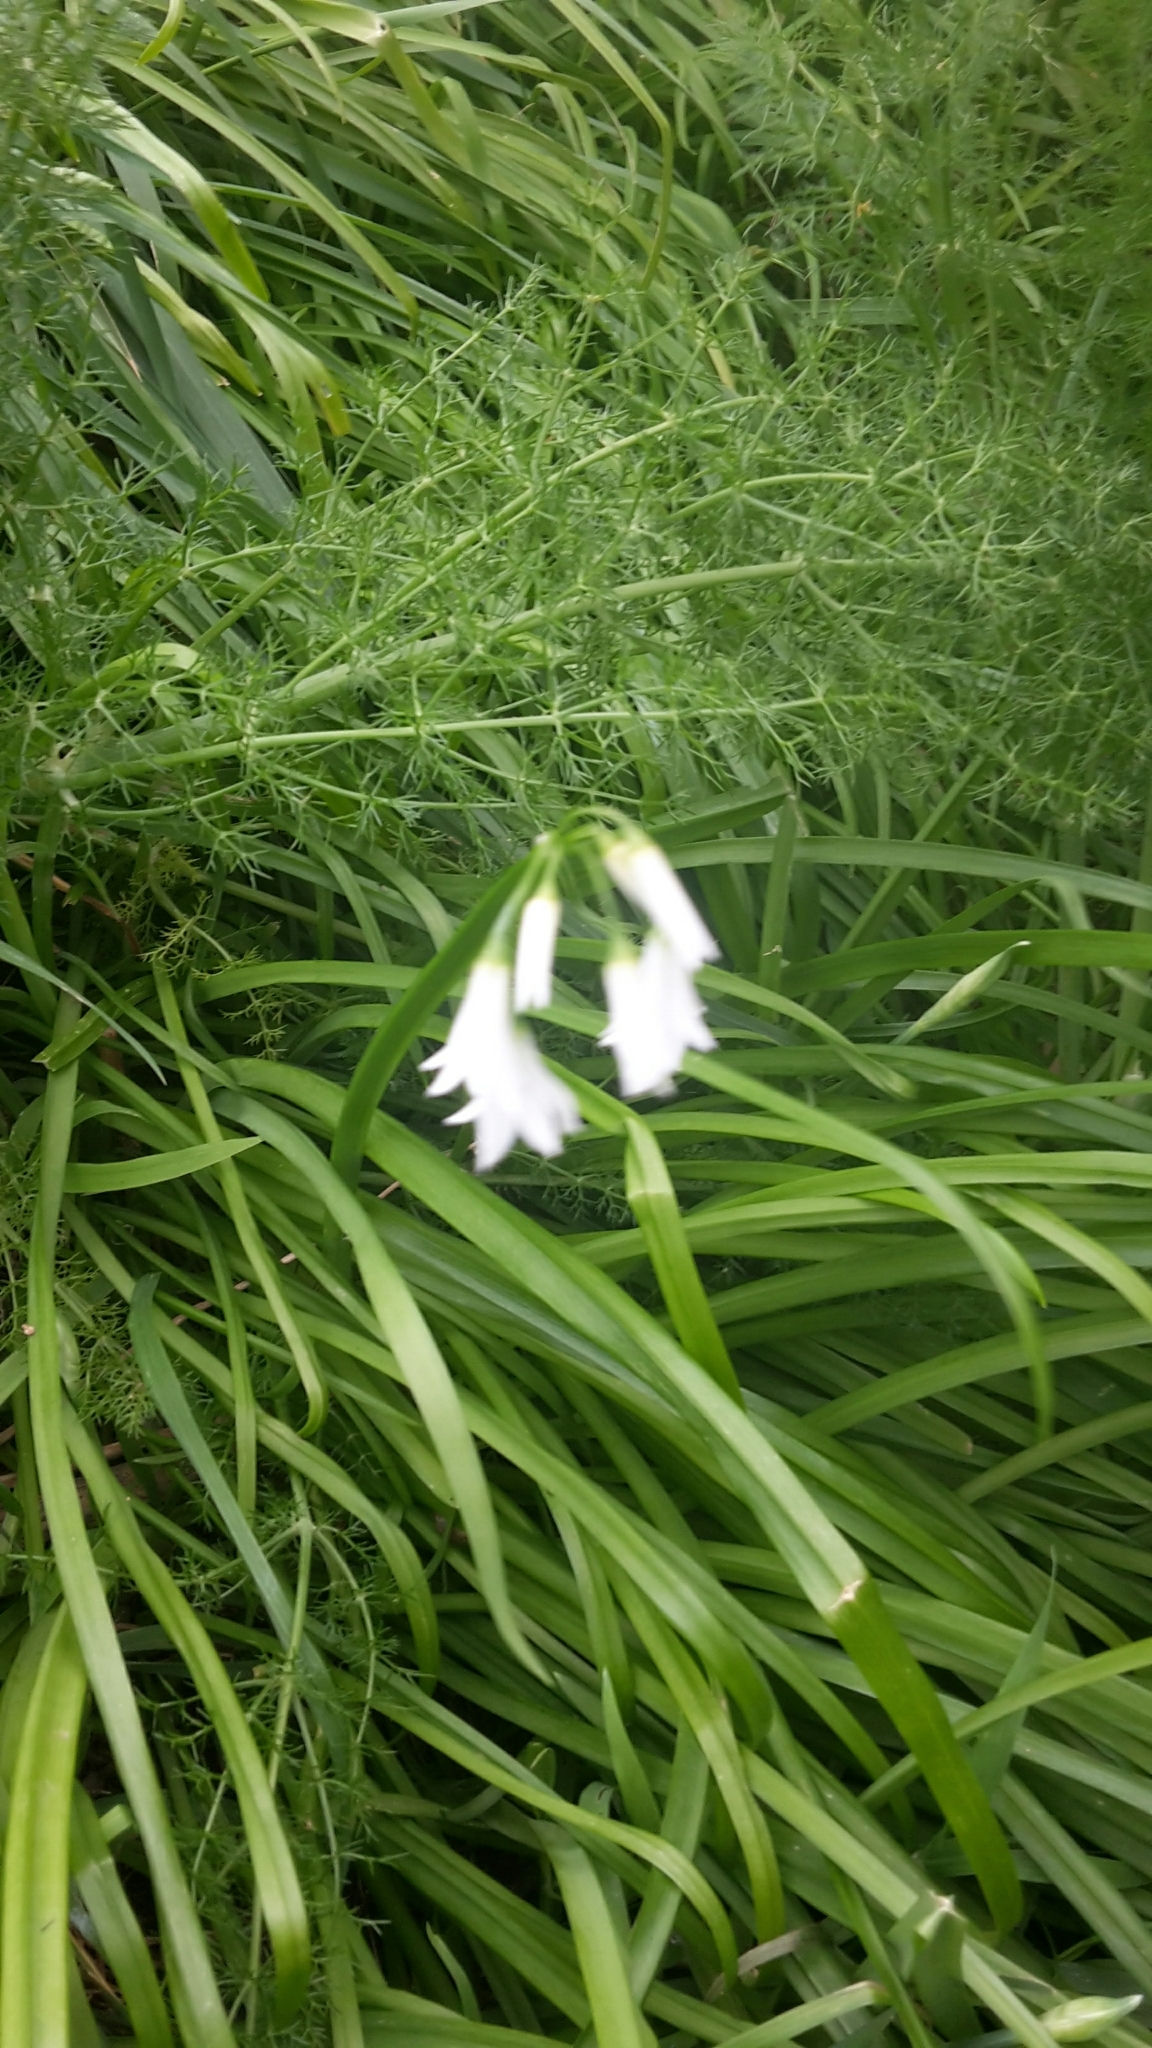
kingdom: Plantae
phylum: Tracheophyta
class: Liliopsida
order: Asparagales
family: Amaryllidaceae
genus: Allium
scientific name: Allium triquetrum
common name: Three-cornered garlic
